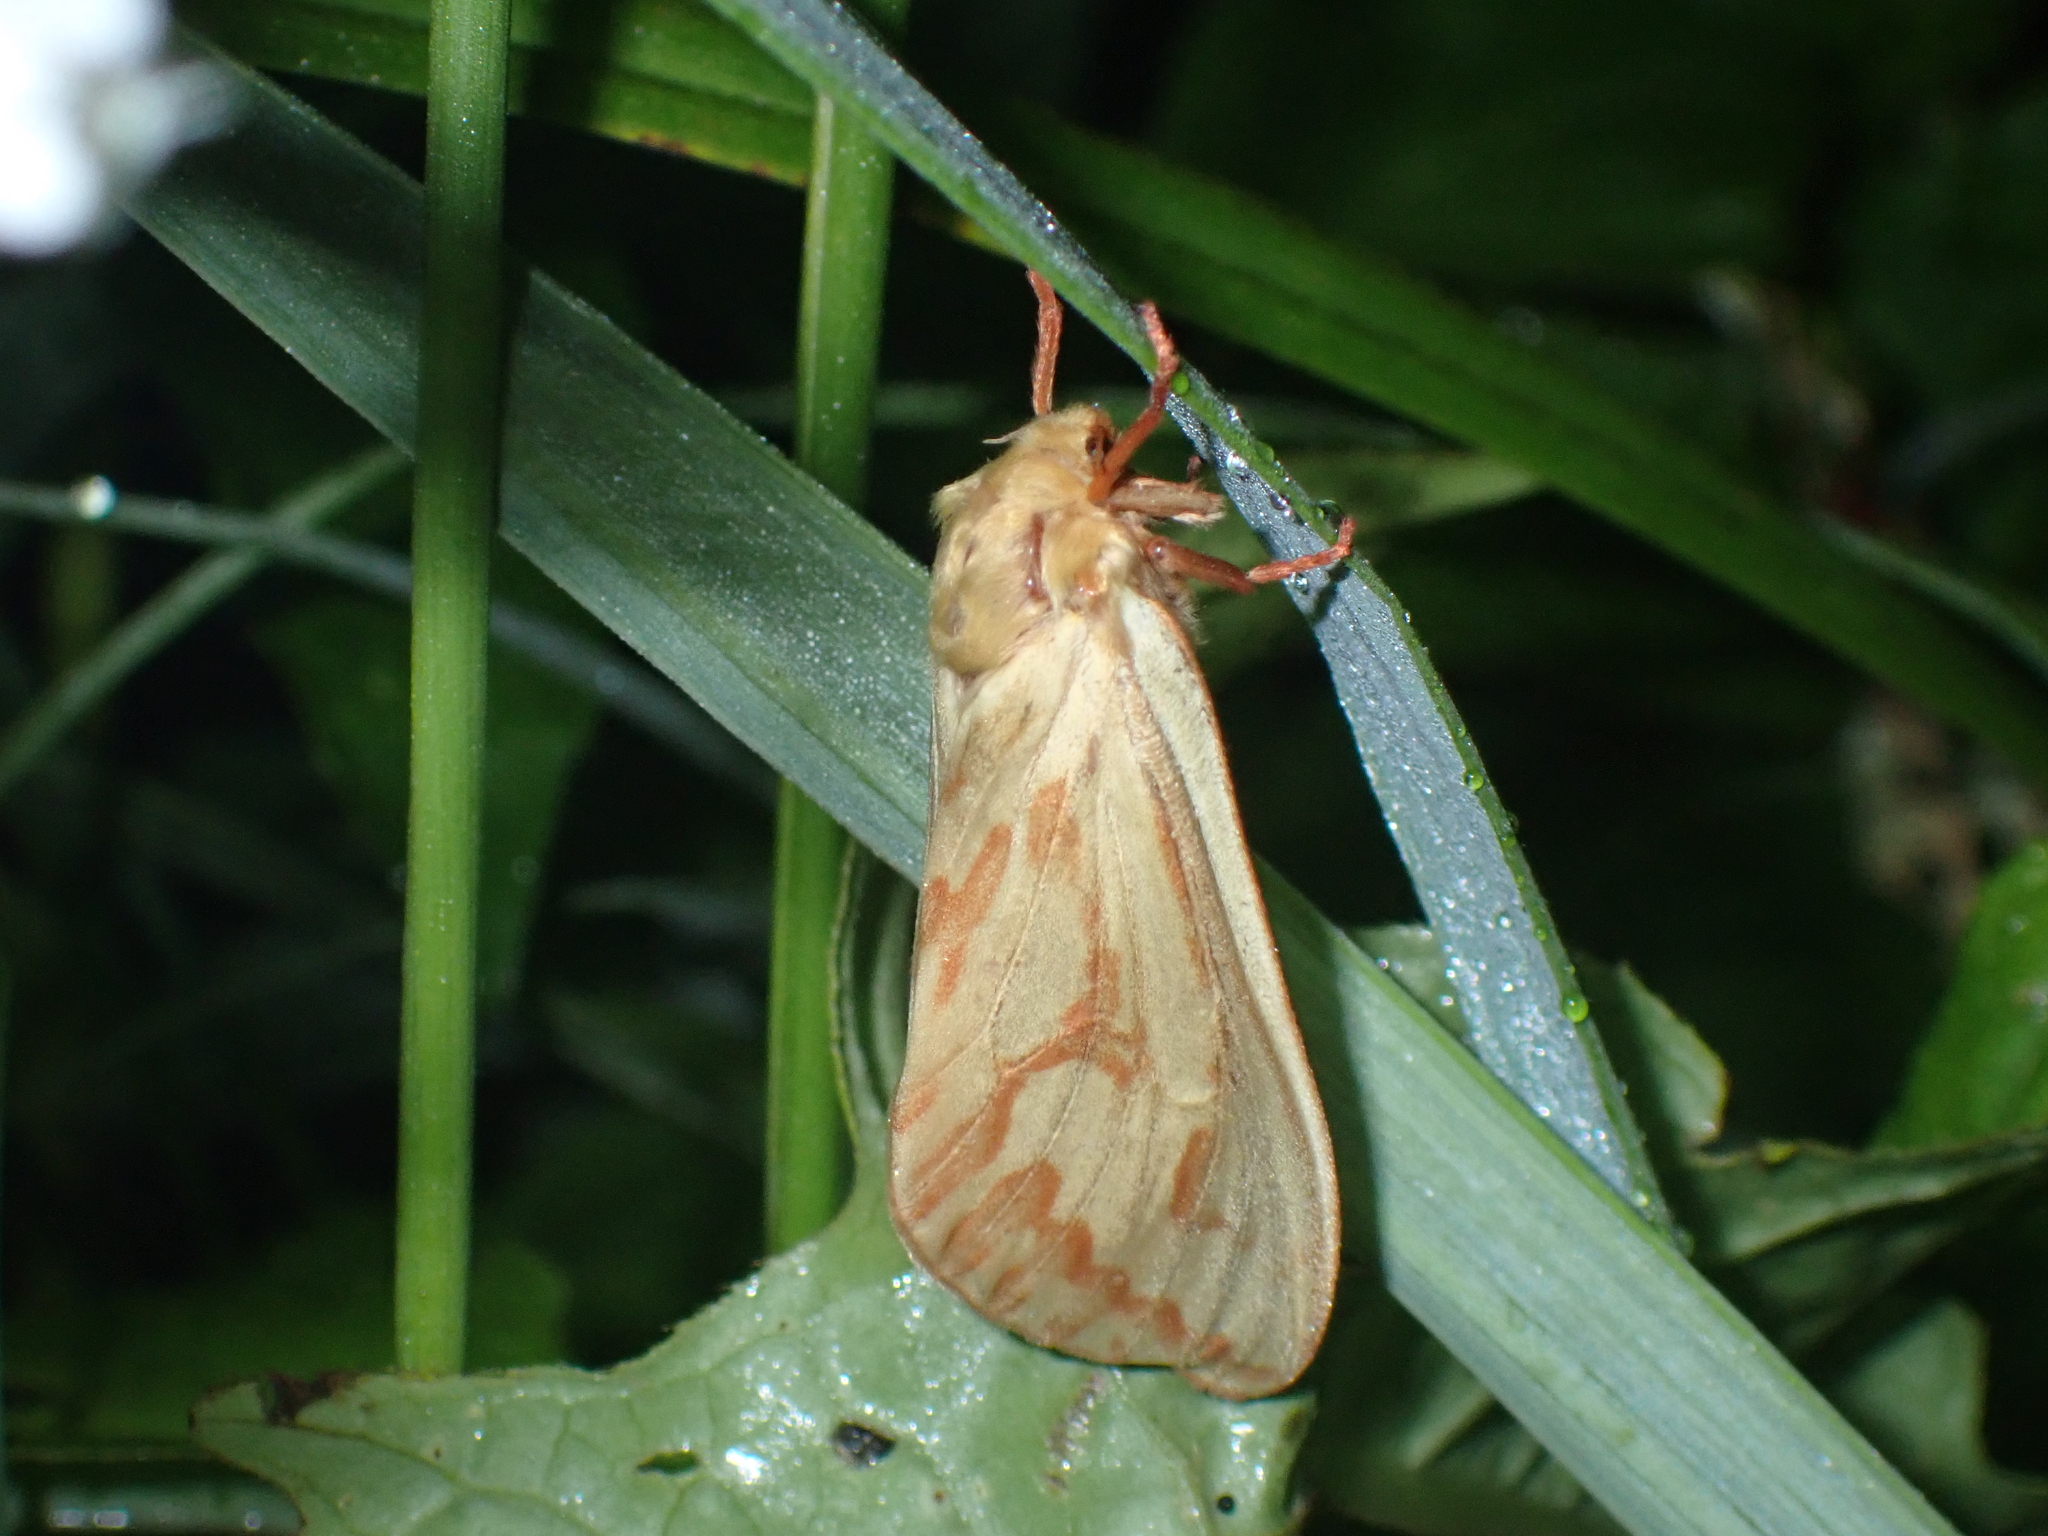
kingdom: Animalia
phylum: Arthropoda
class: Insecta
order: Lepidoptera
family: Hepialidae
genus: Hepialus
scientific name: Hepialus humuli
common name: Ghost moth
